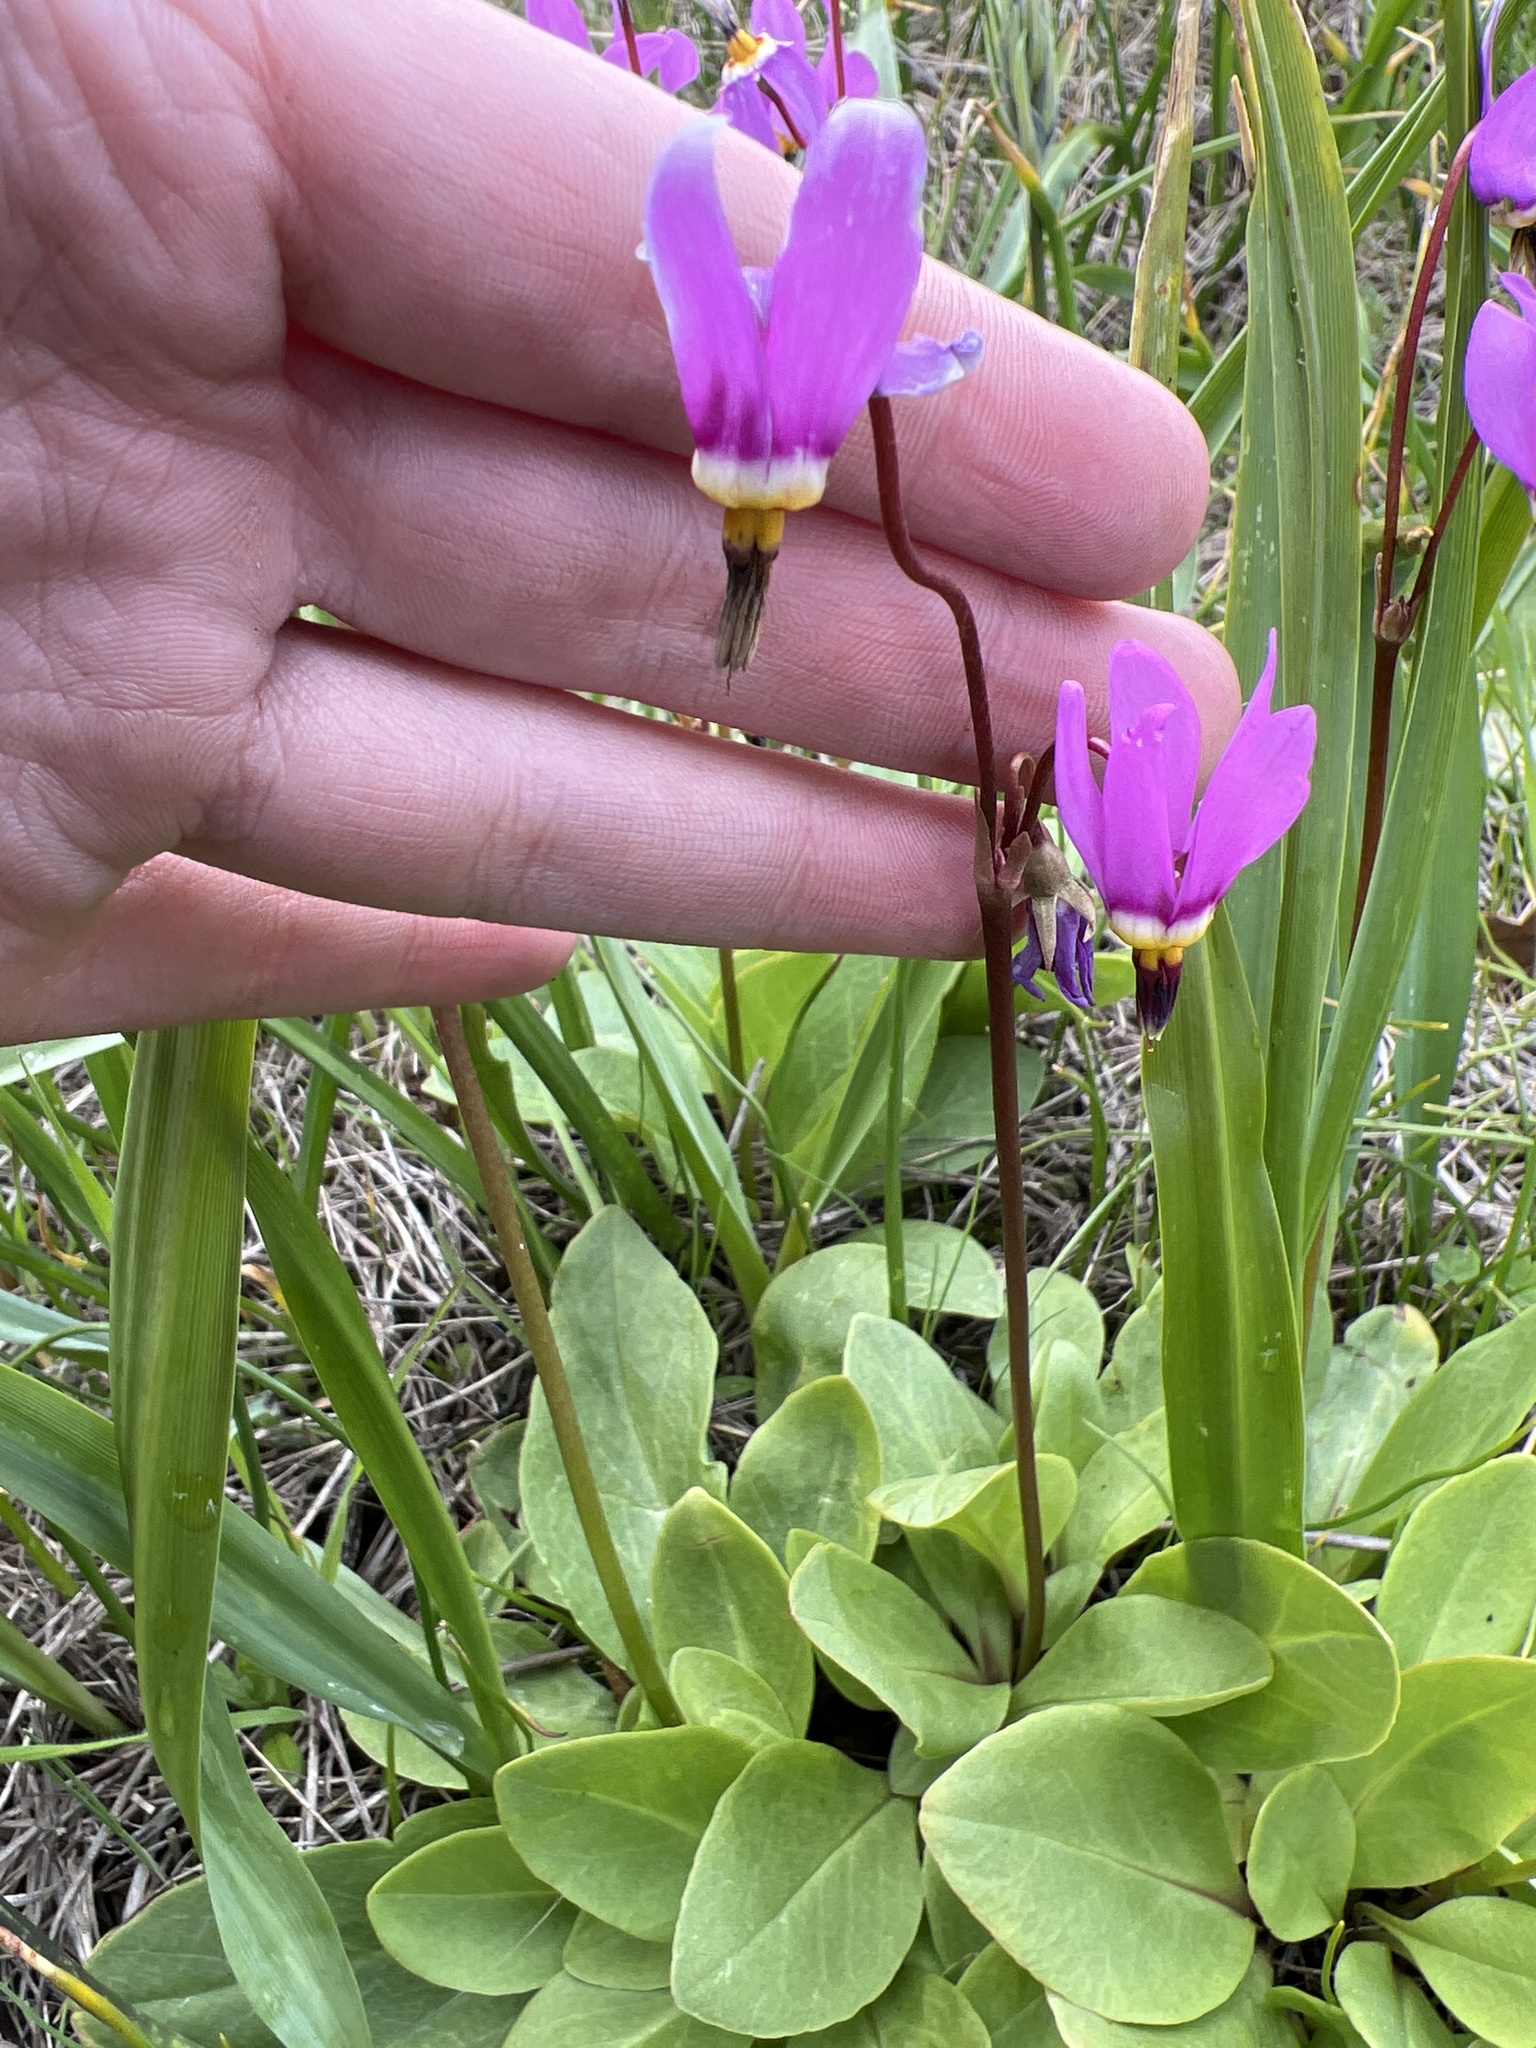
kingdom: Plantae
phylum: Tracheophyta
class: Magnoliopsida
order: Ericales
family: Primulaceae
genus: Dodecatheon
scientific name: Dodecatheon pulchellum
